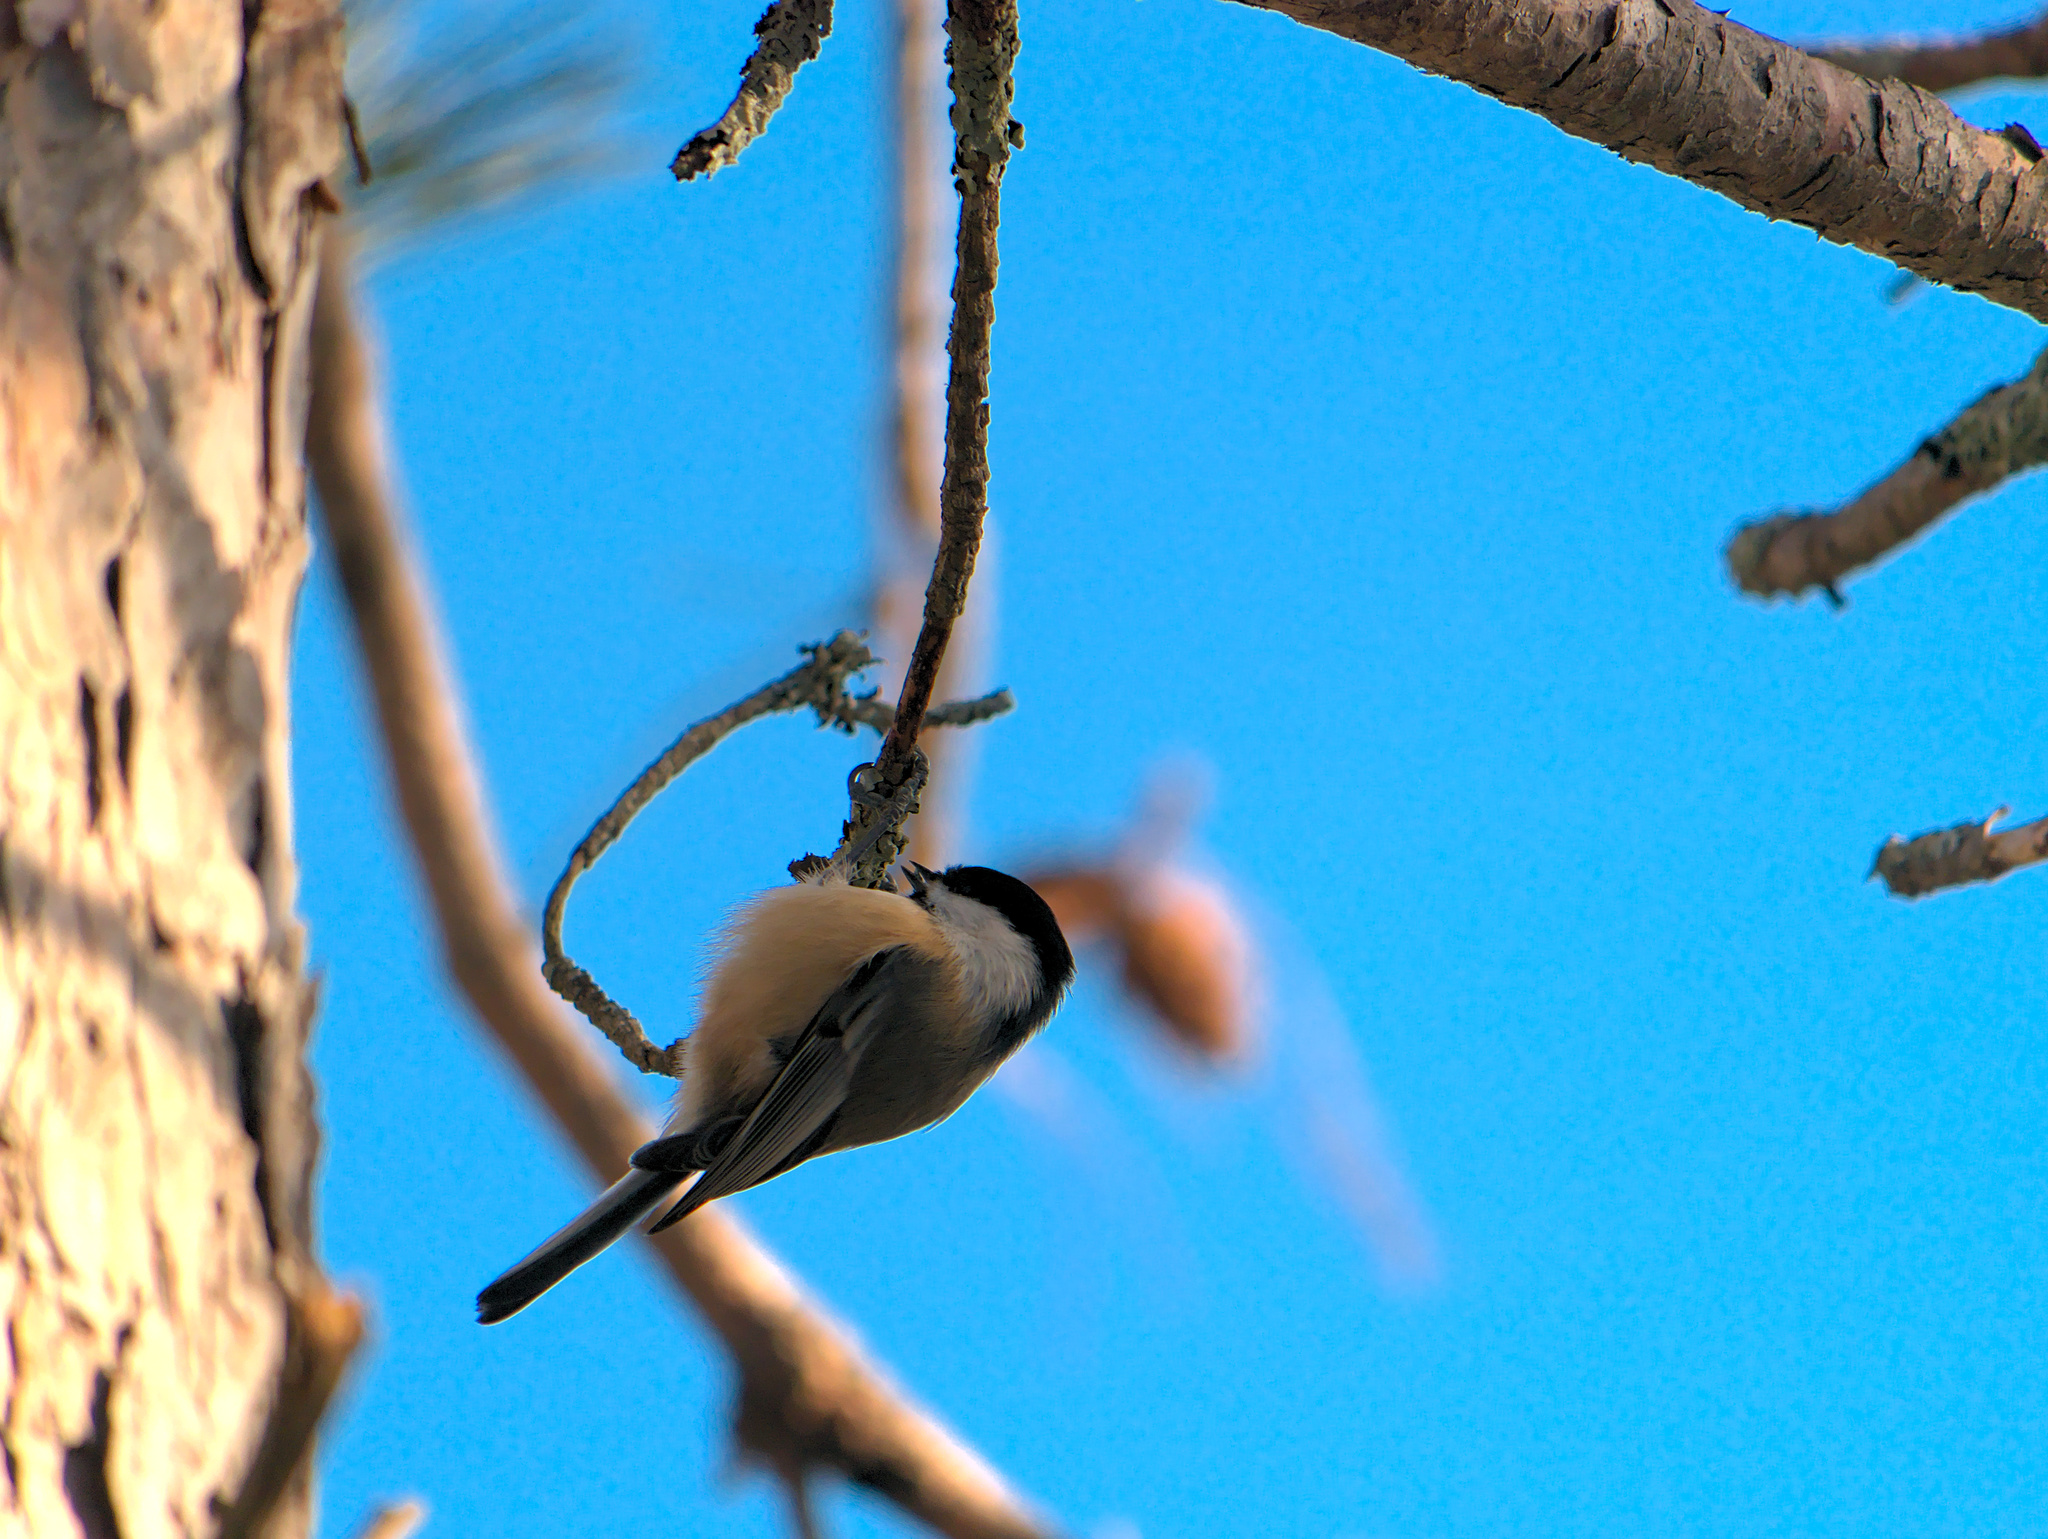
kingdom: Animalia
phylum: Chordata
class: Aves
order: Passeriformes
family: Paridae
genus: Poecile
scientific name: Poecile atricapillus
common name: Black-capped chickadee
